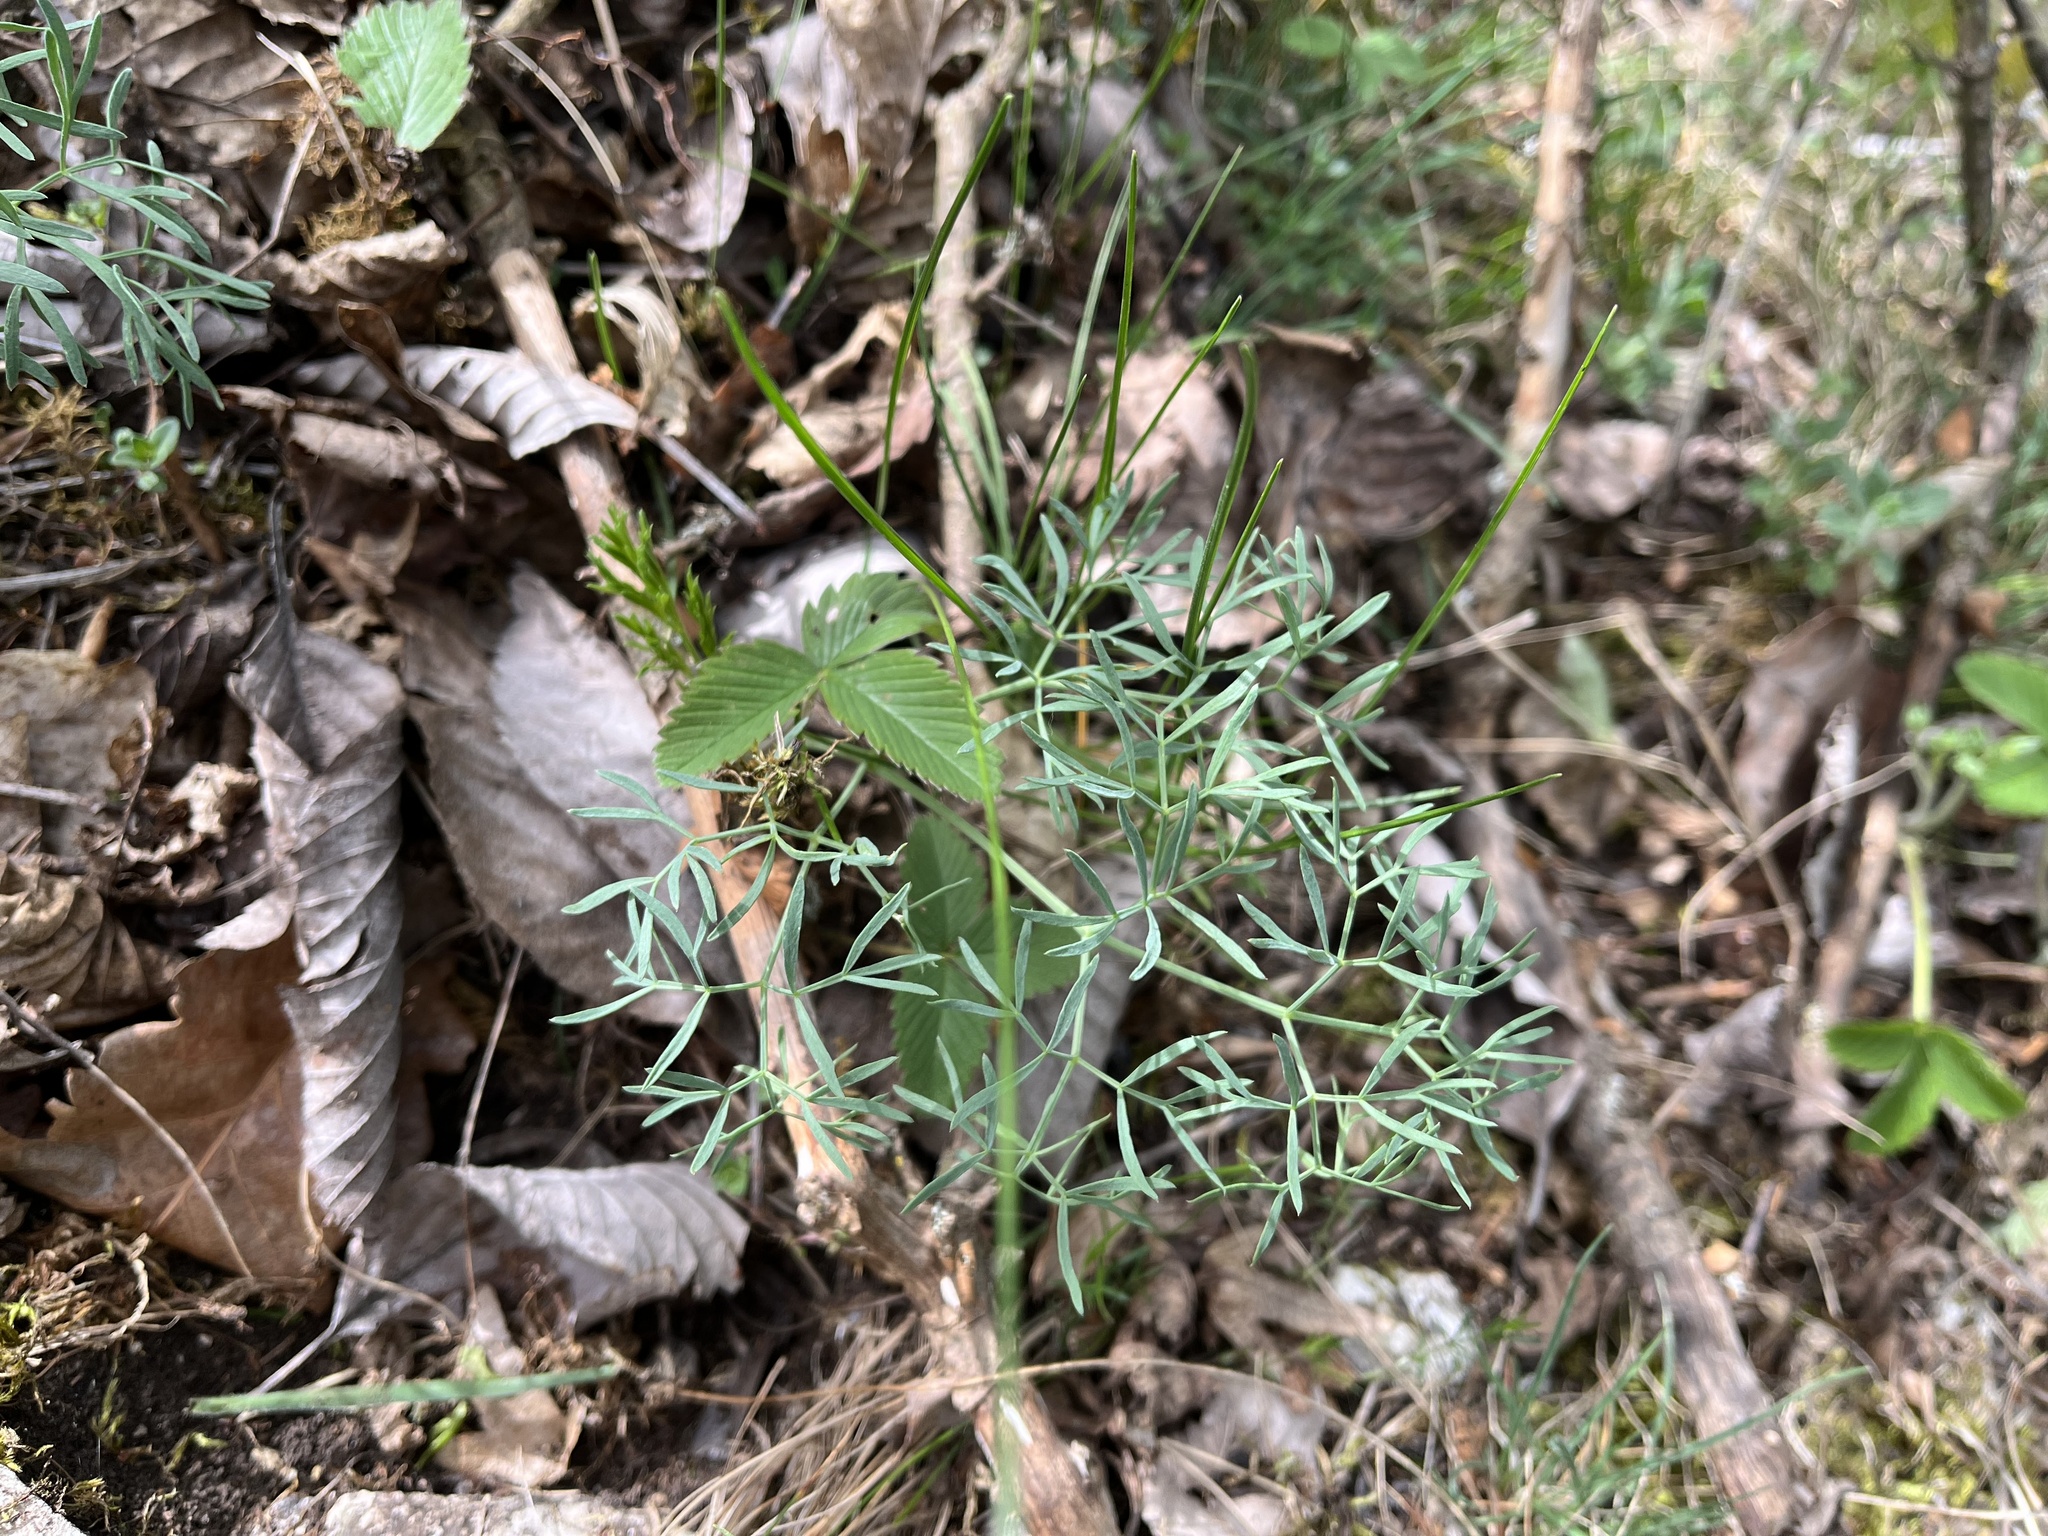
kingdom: Plantae
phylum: Tracheophyta
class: Magnoliopsida
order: Apiales
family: Apiaceae
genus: Seseli
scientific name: Seseli osseum
